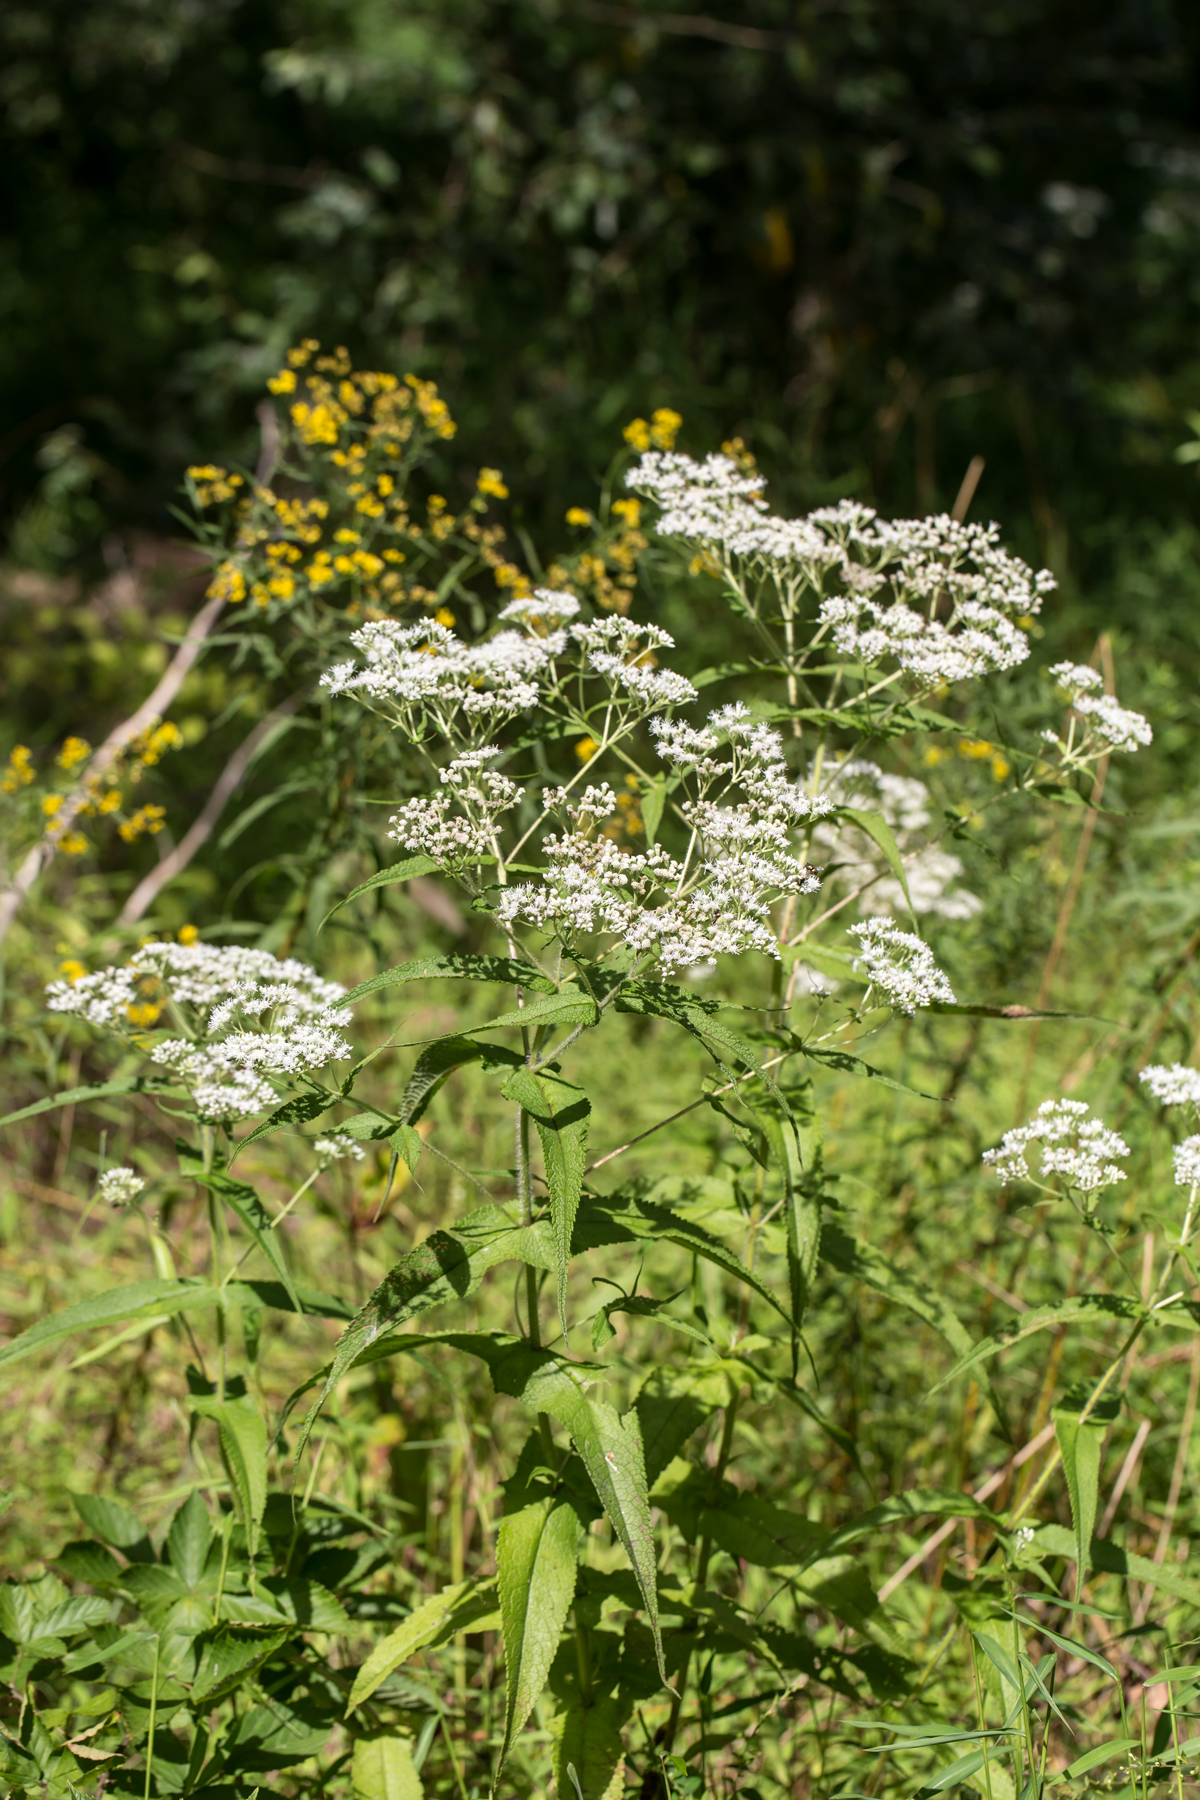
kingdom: Plantae
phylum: Tracheophyta
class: Magnoliopsida
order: Asterales
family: Asteraceae
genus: Eupatorium
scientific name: Eupatorium perfoliatum
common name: Boneset
